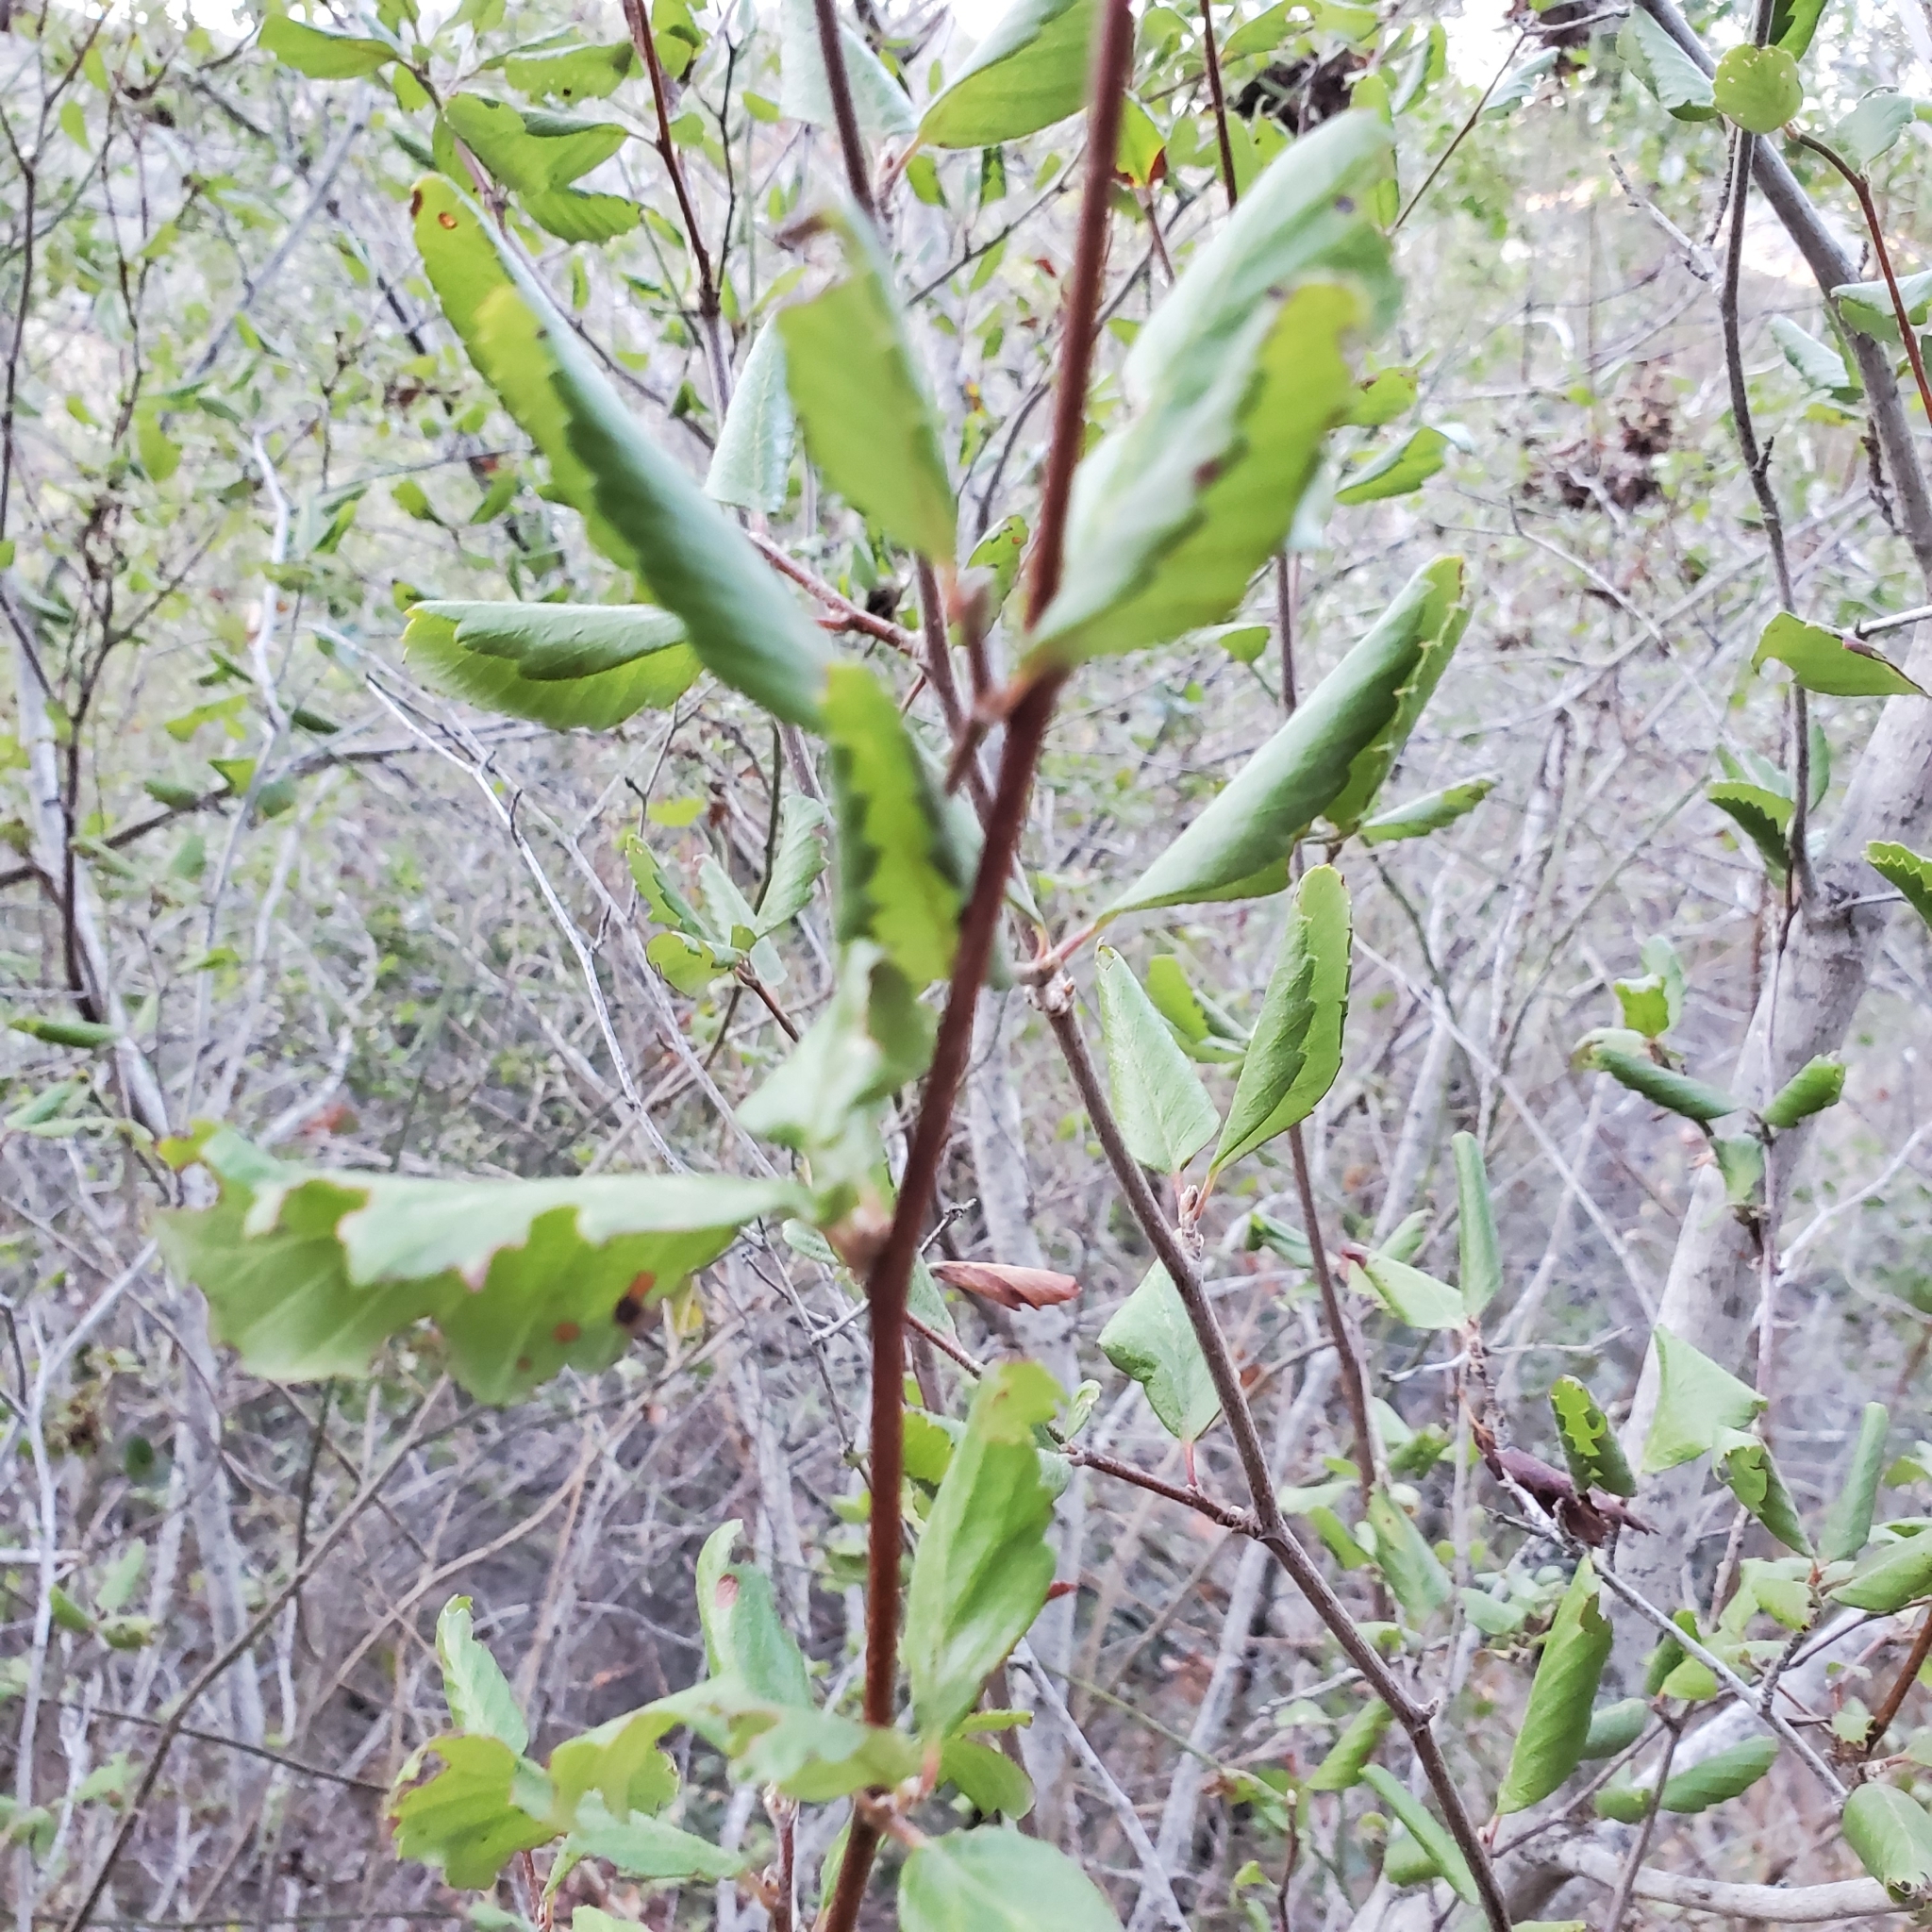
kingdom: Plantae
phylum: Tracheophyta
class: Magnoliopsida
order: Rosales
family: Rosaceae
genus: Cercocarpus
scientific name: Cercocarpus betuloides
